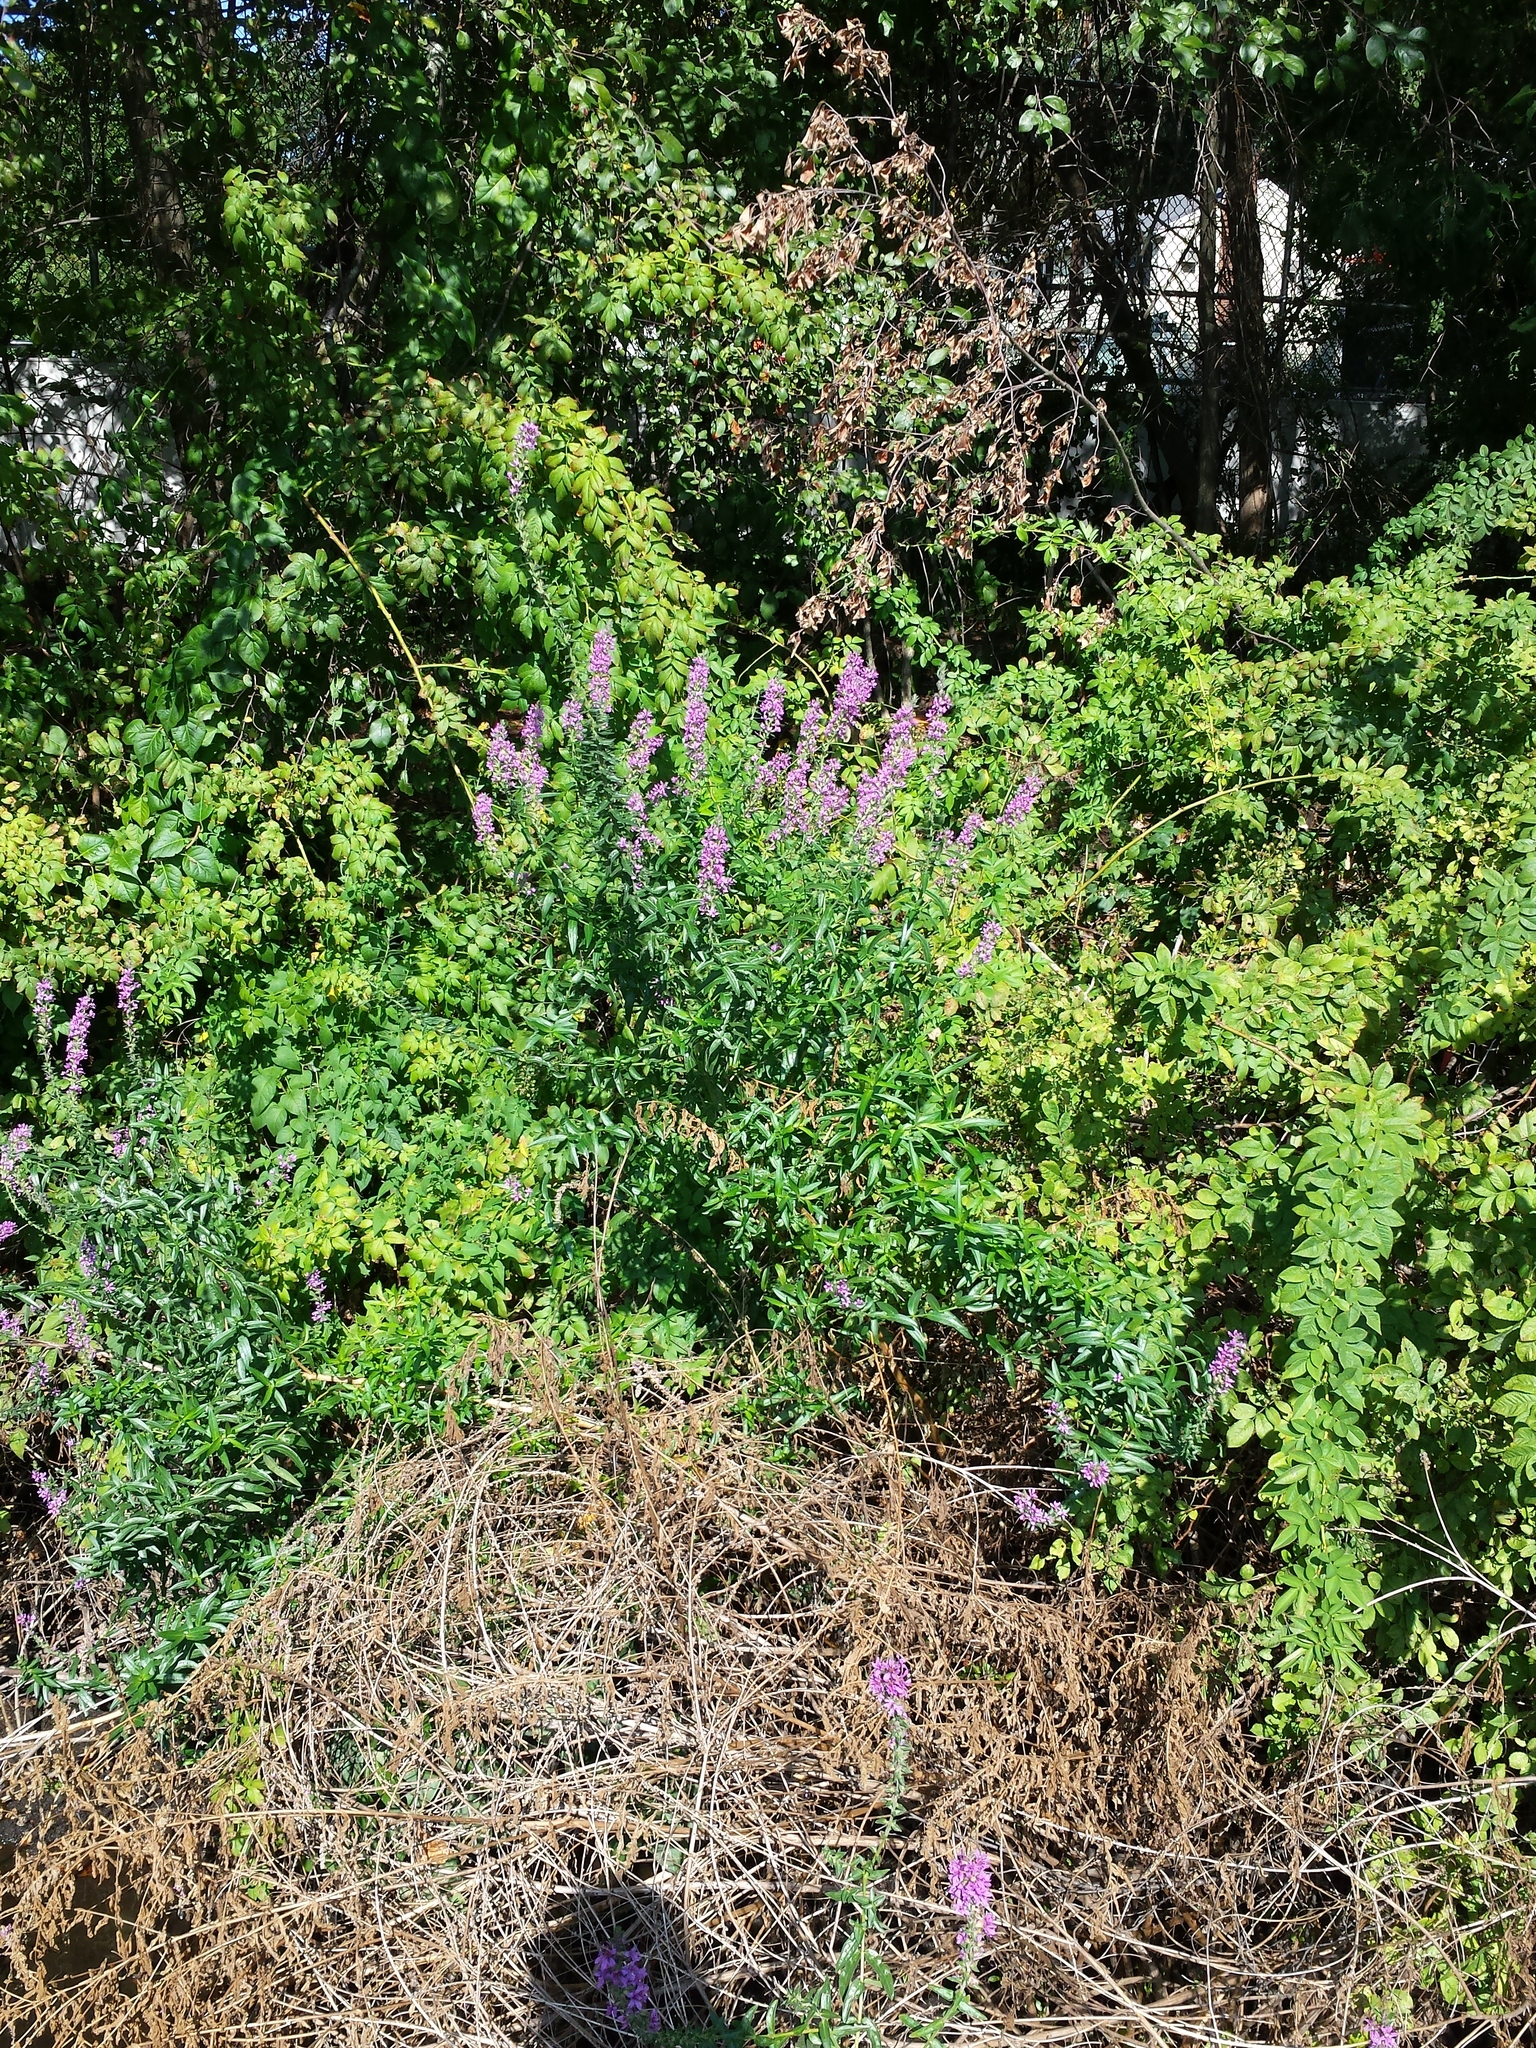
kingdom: Plantae
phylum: Tracheophyta
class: Magnoliopsida
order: Myrtales
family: Lythraceae
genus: Lythrum
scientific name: Lythrum salicaria
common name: Purple loosestrife
